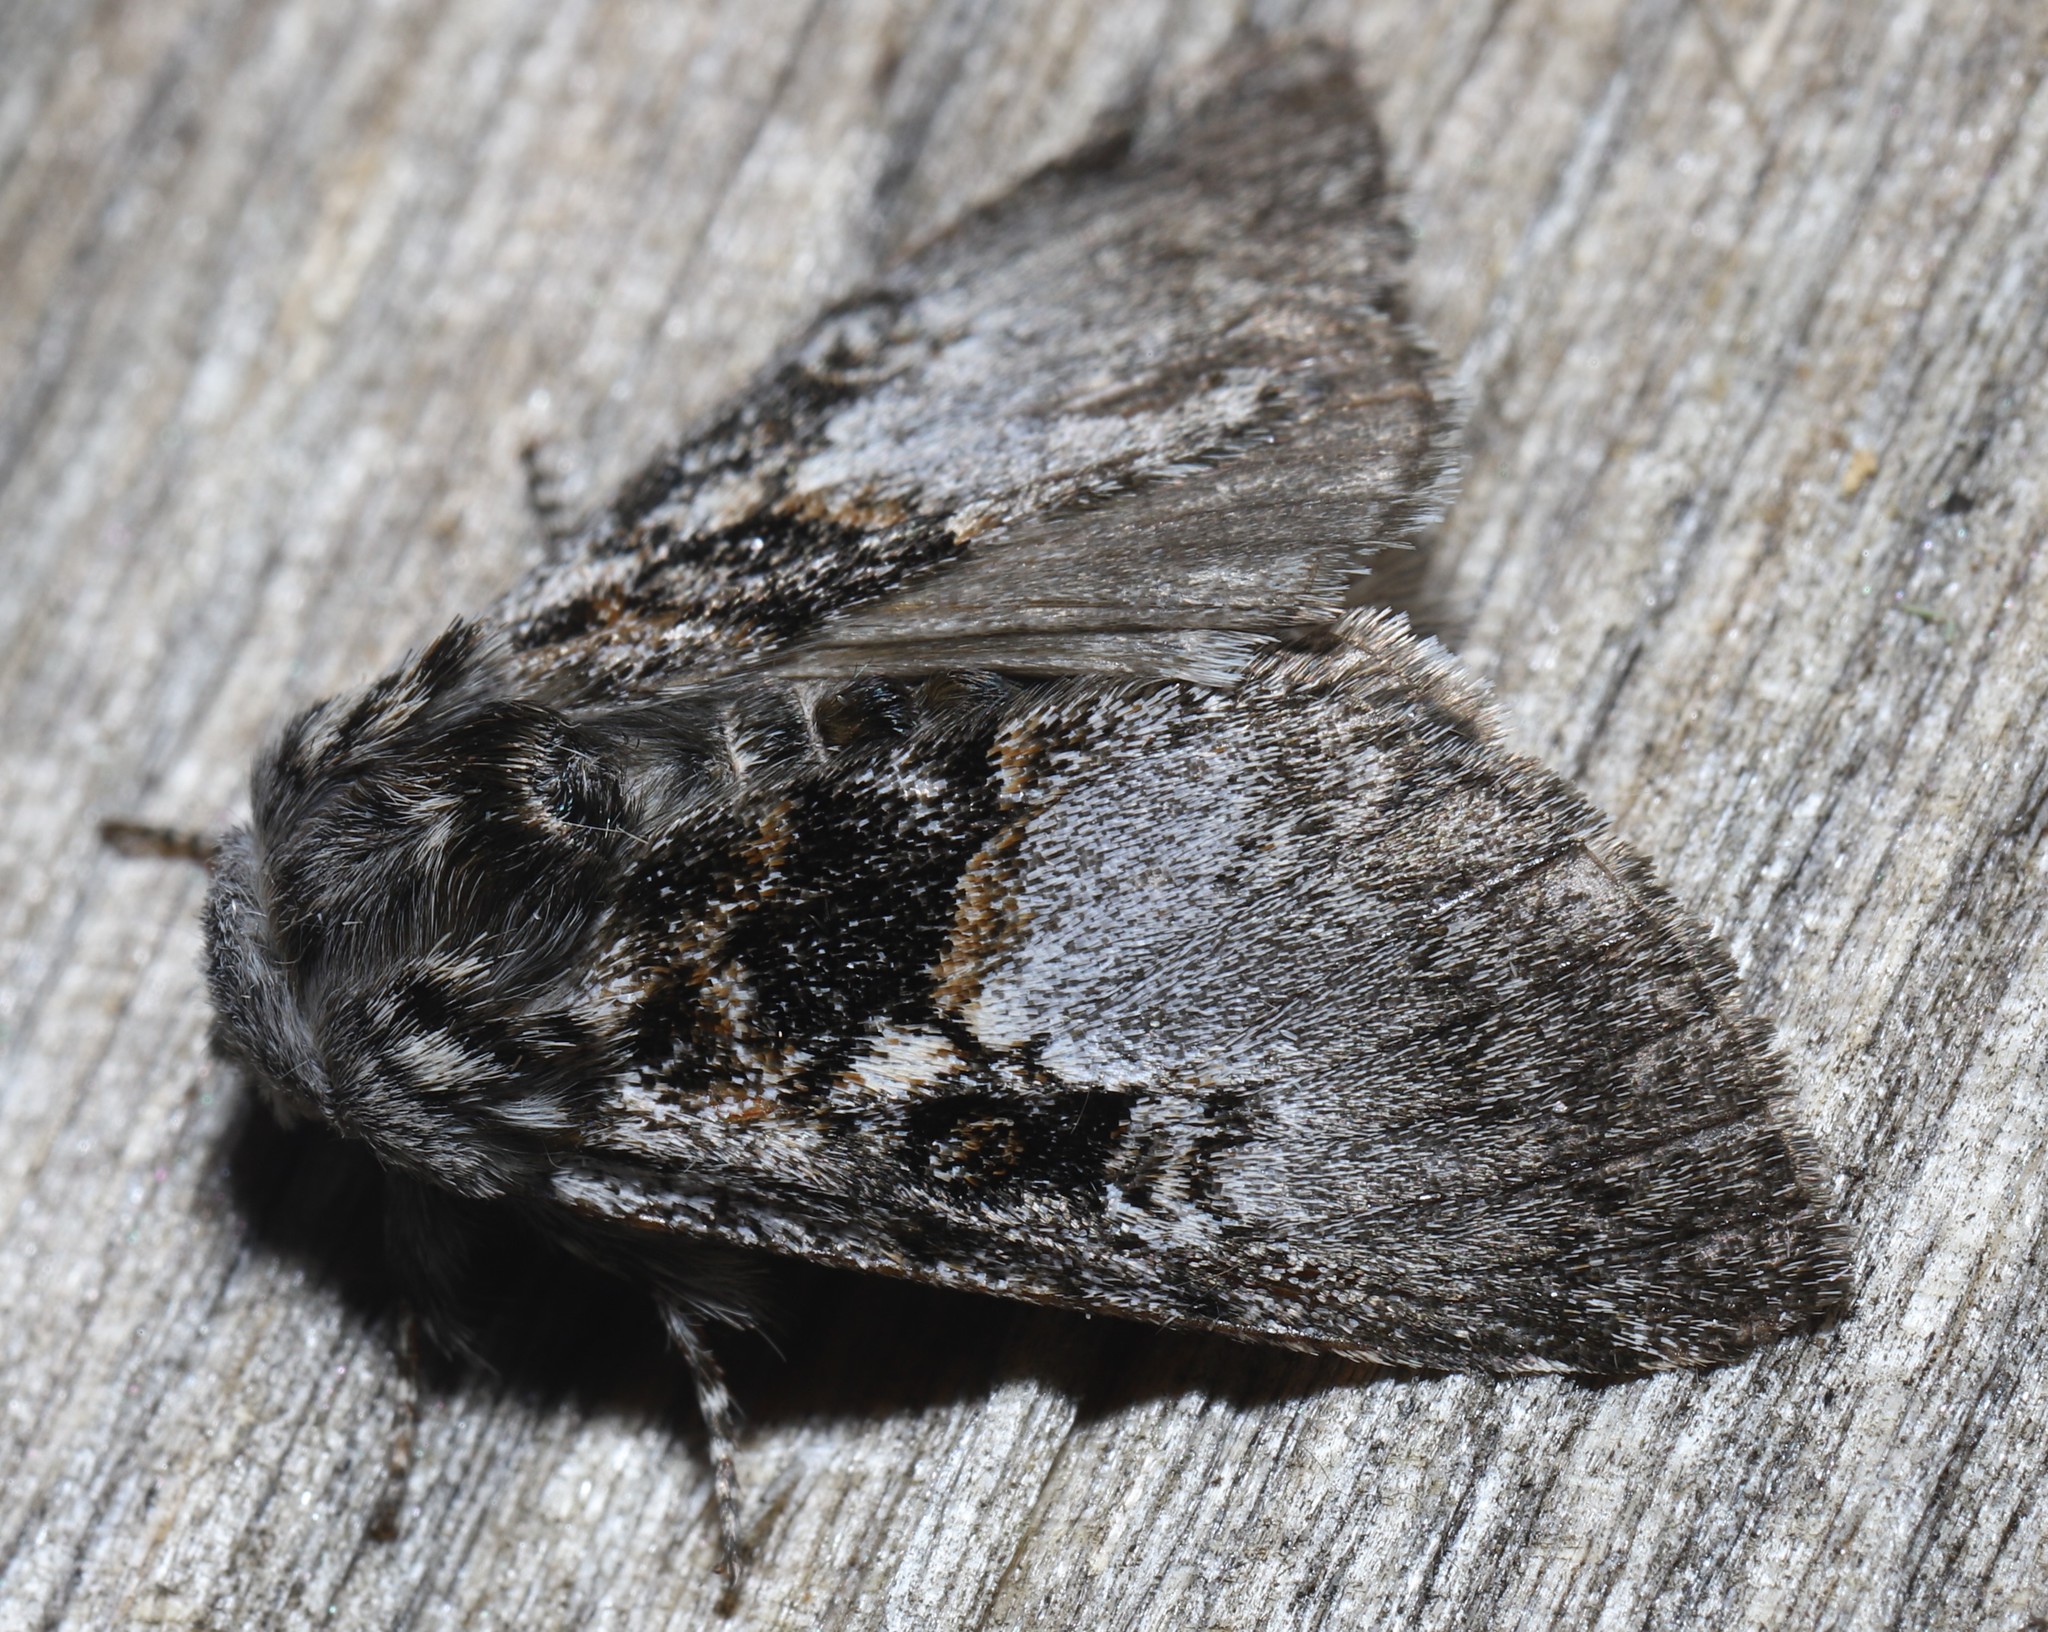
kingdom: Animalia
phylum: Arthropoda
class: Insecta
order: Lepidoptera
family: Noctuidae
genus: Colocasia
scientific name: Colocasia flavicornis
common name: Saddled yellowhorn
